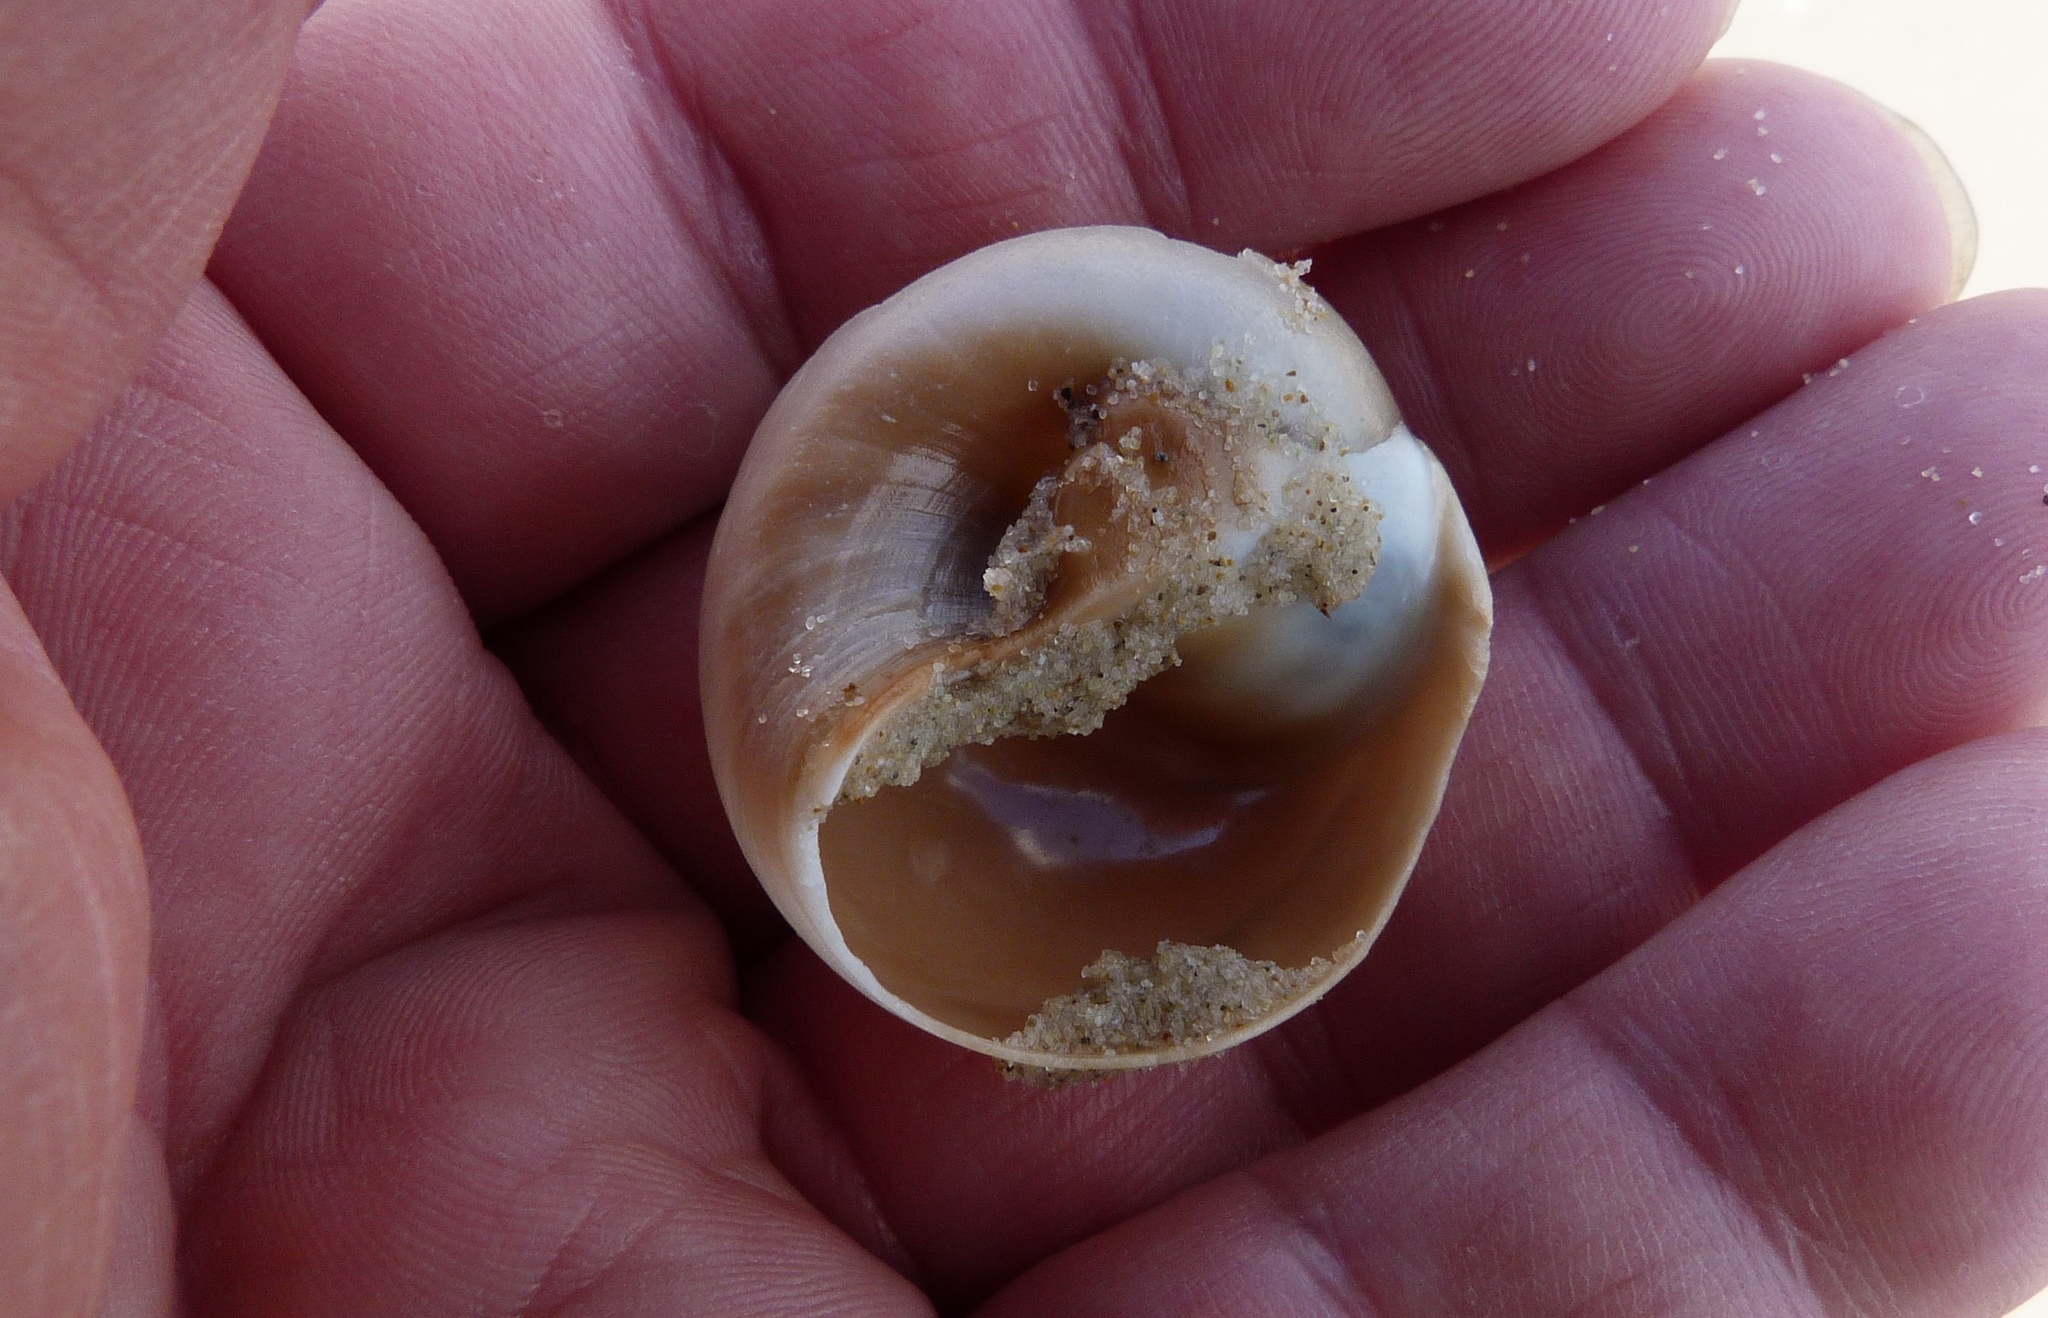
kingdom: Animalia
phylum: Mollusca
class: Gastropoda
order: Littorinimorpha
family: Naticidae
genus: Neverita
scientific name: Neverita didyma
